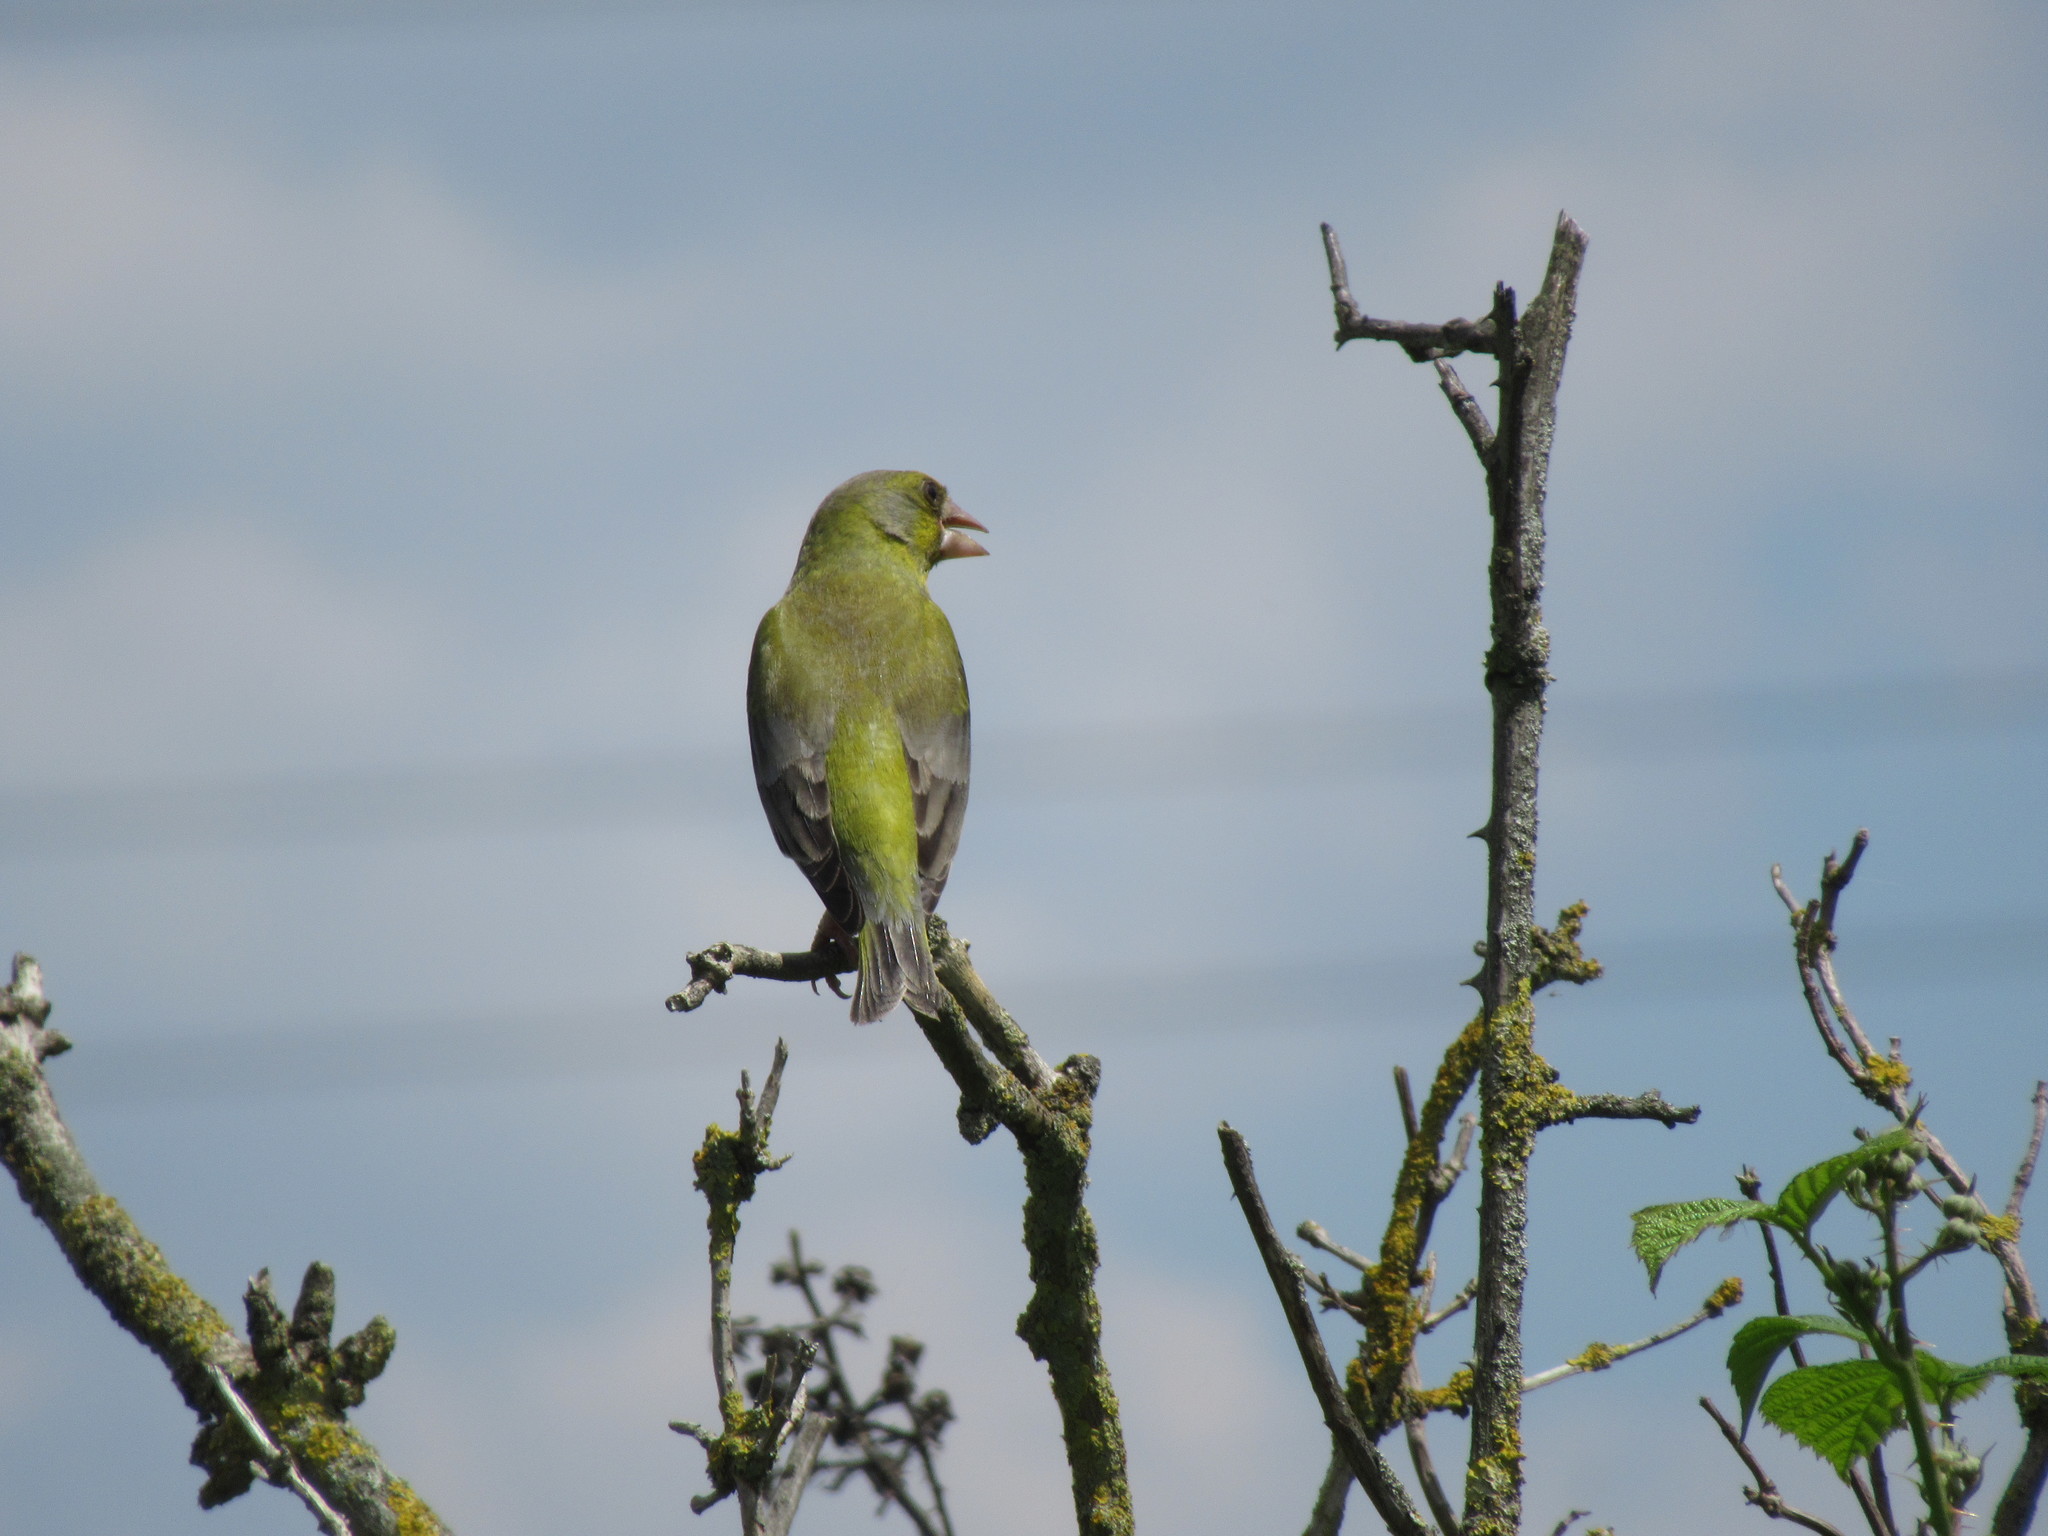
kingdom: Plantae
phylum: Tracheophyta
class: Liliopsida
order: Poales
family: Poaceae
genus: Chloris
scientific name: Chloris chloris
